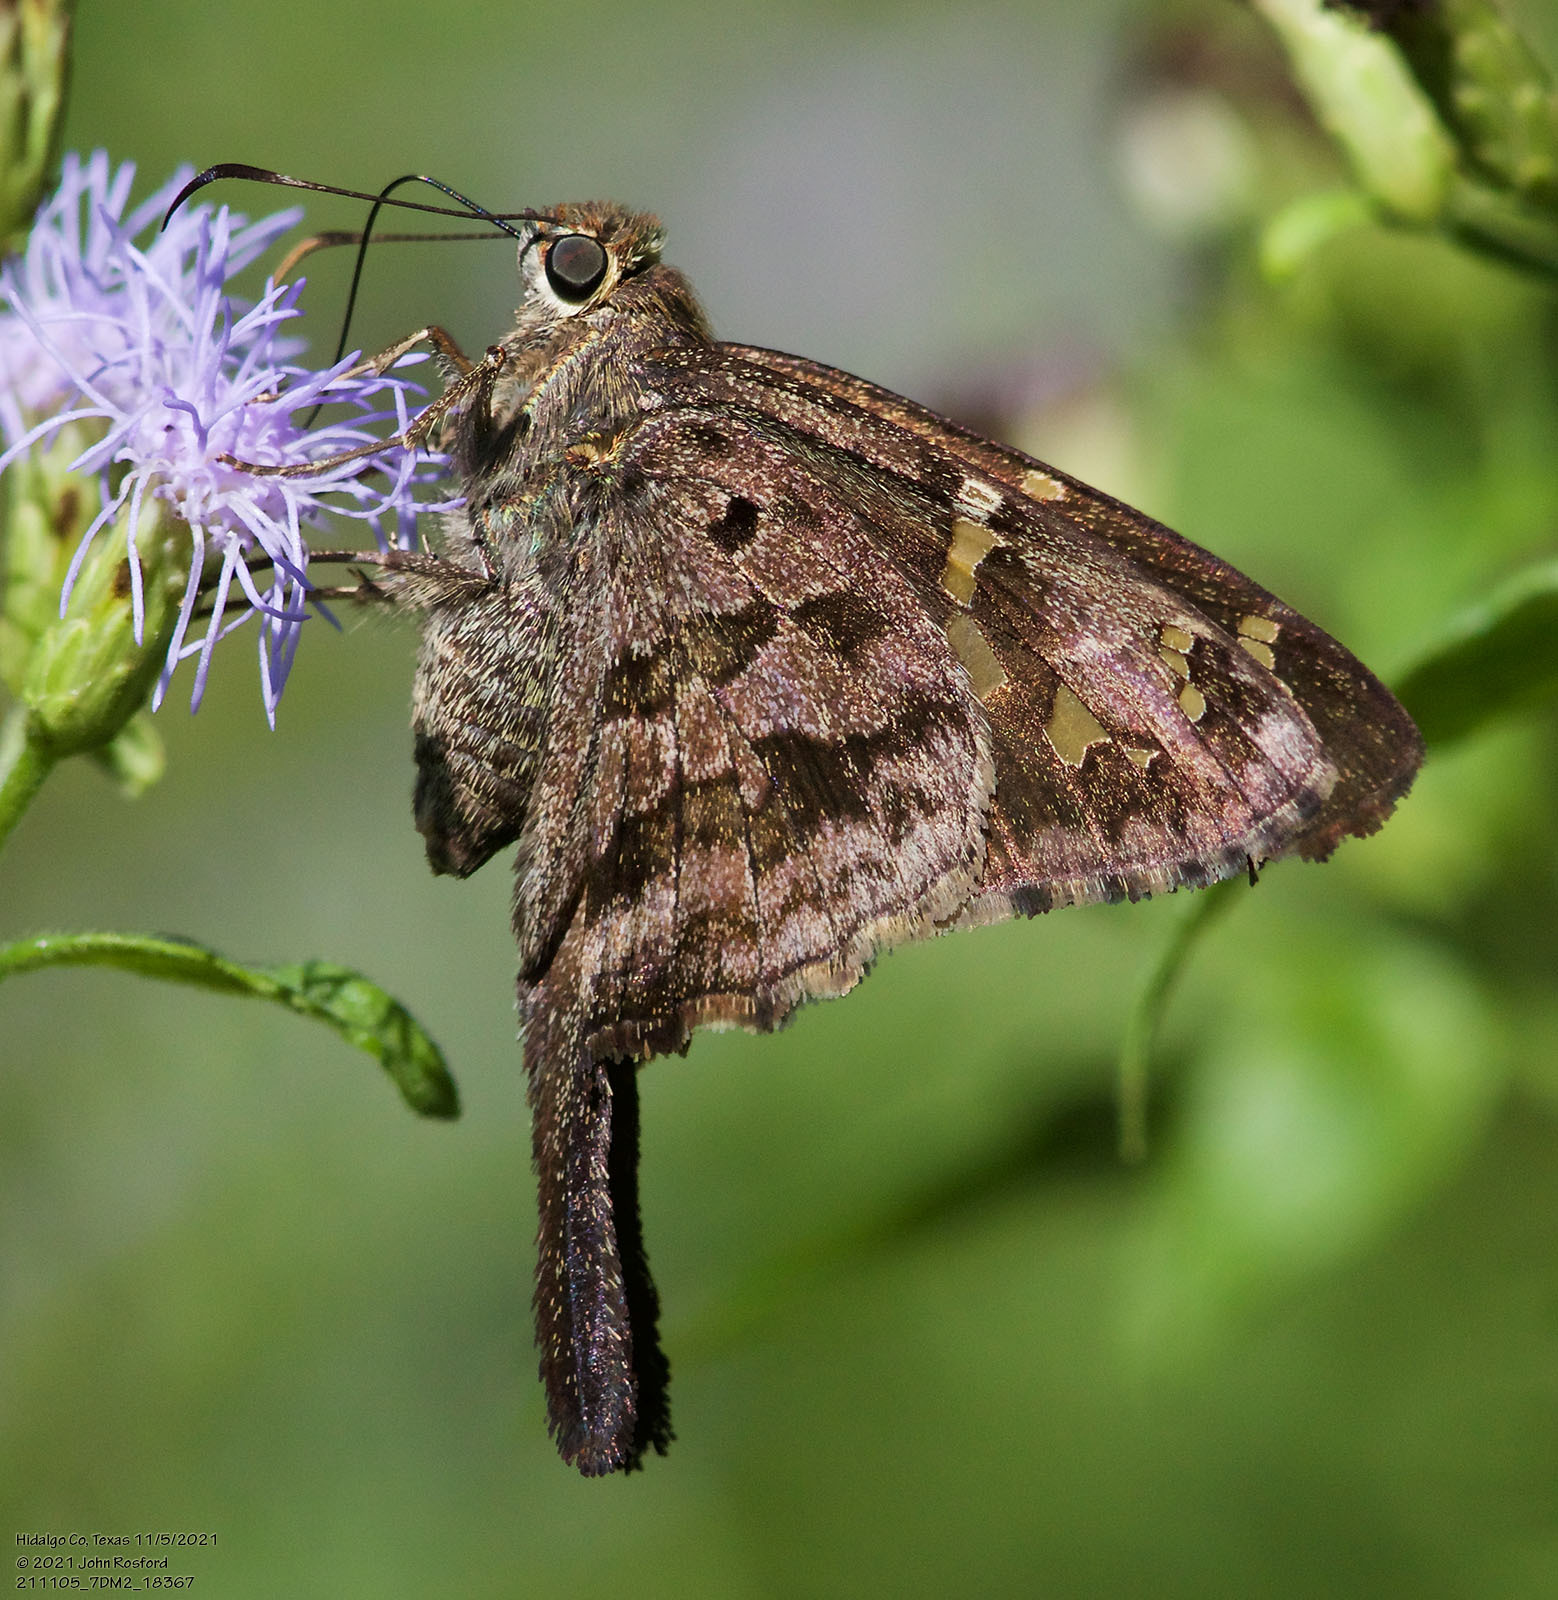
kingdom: Animalia
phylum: Arthropoda
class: Insecta
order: Lepidoptera
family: Hesperiidae
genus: Thorybes
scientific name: Thorybes
